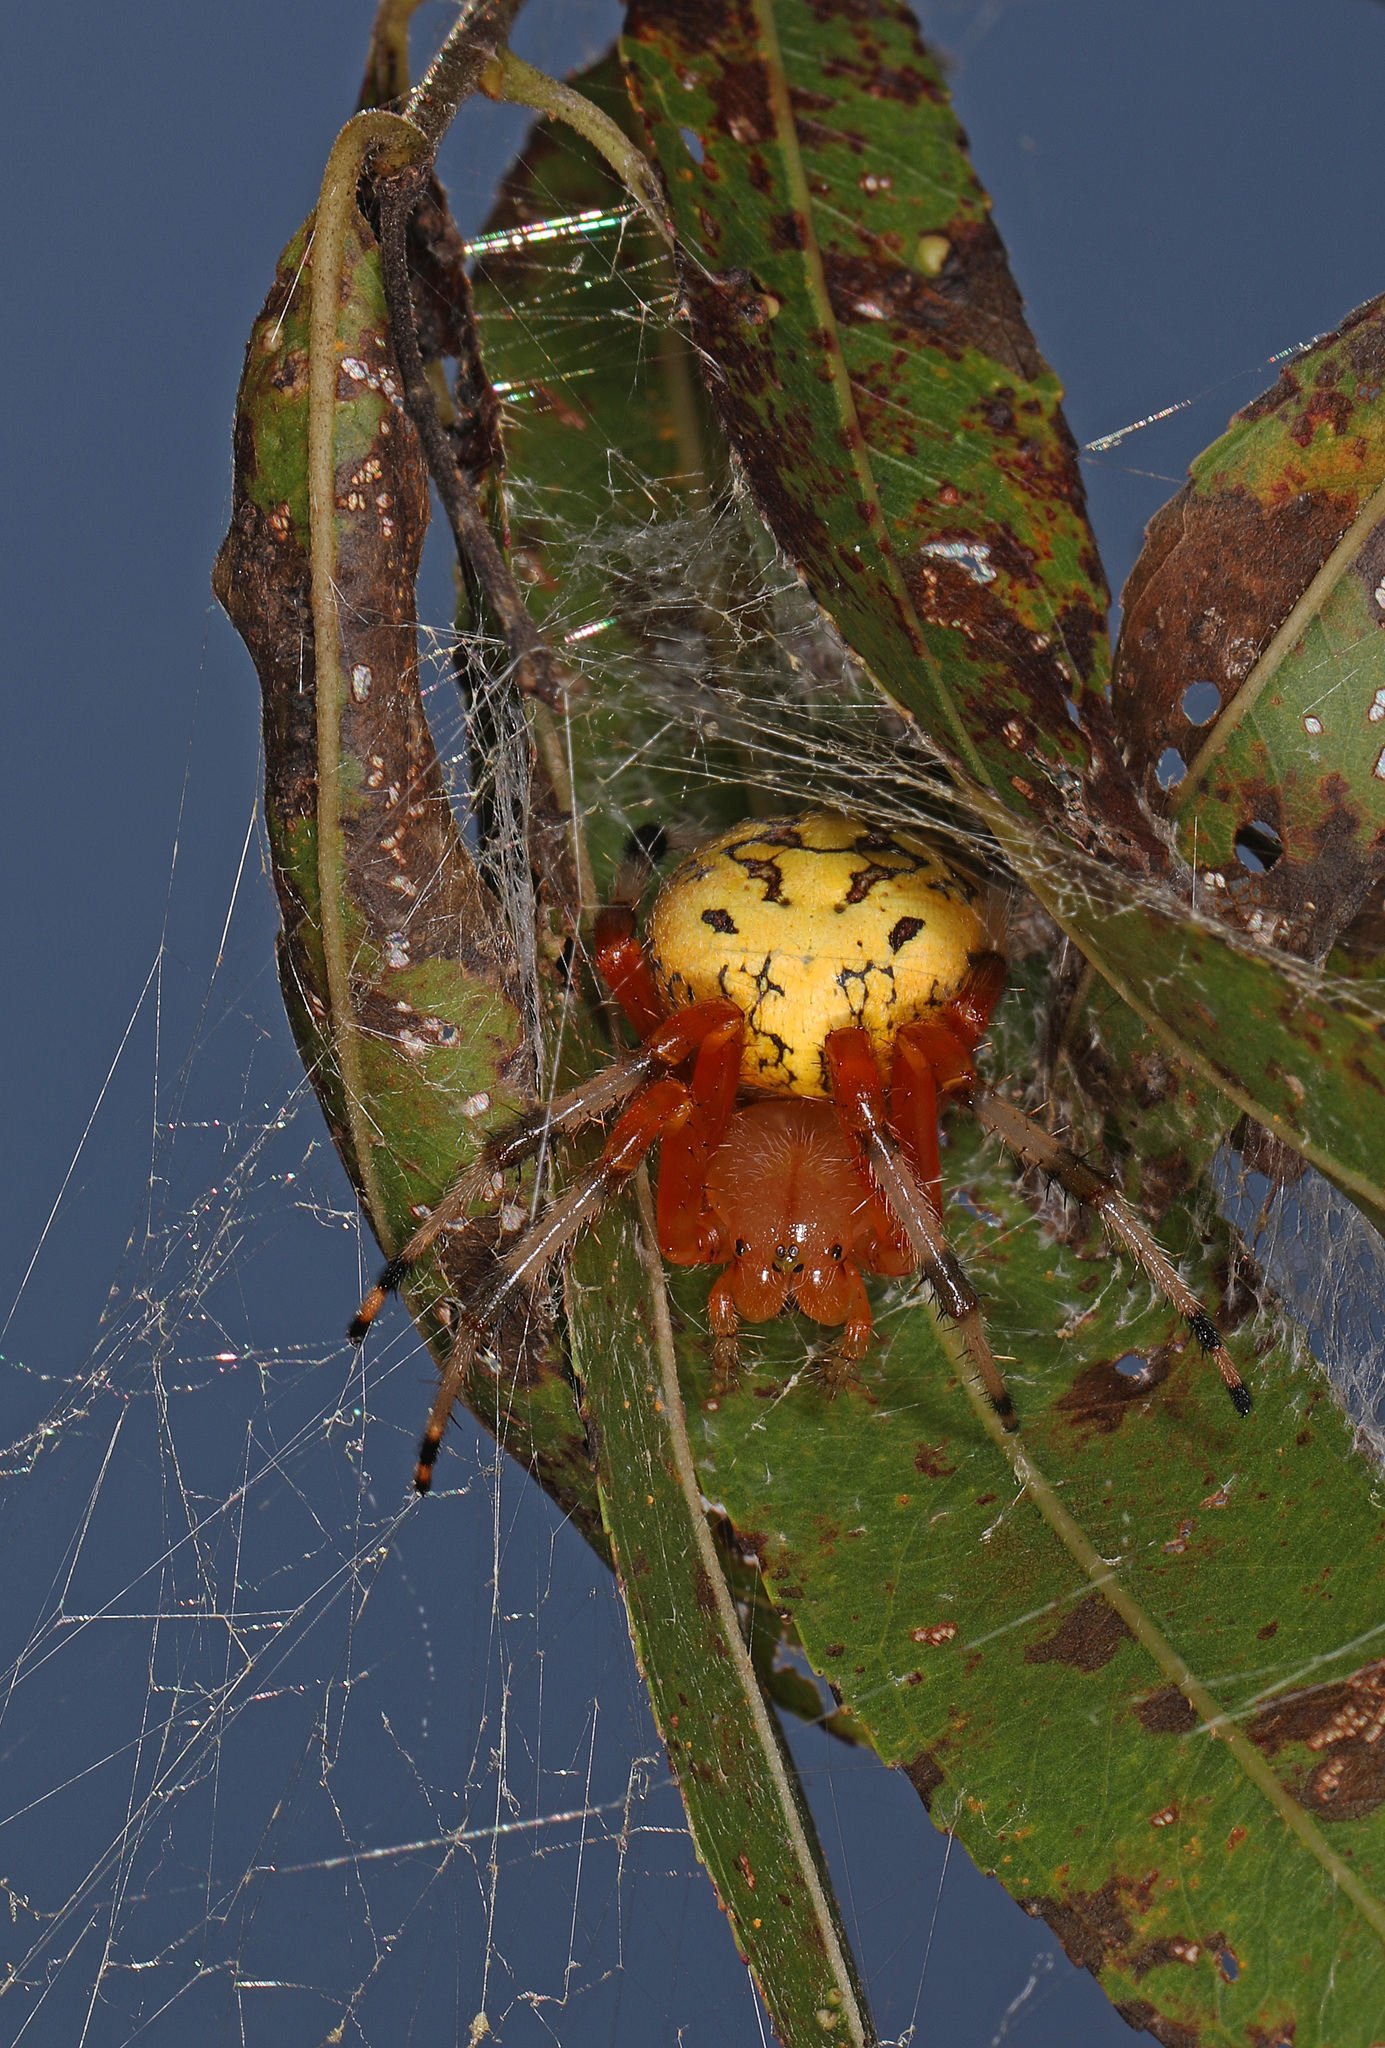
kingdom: Animalia
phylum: Arthropoda
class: Arachnida
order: Araneae
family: Araneidae
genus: Araneus
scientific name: Araneus marmoreus
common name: Marbled orbweaver
